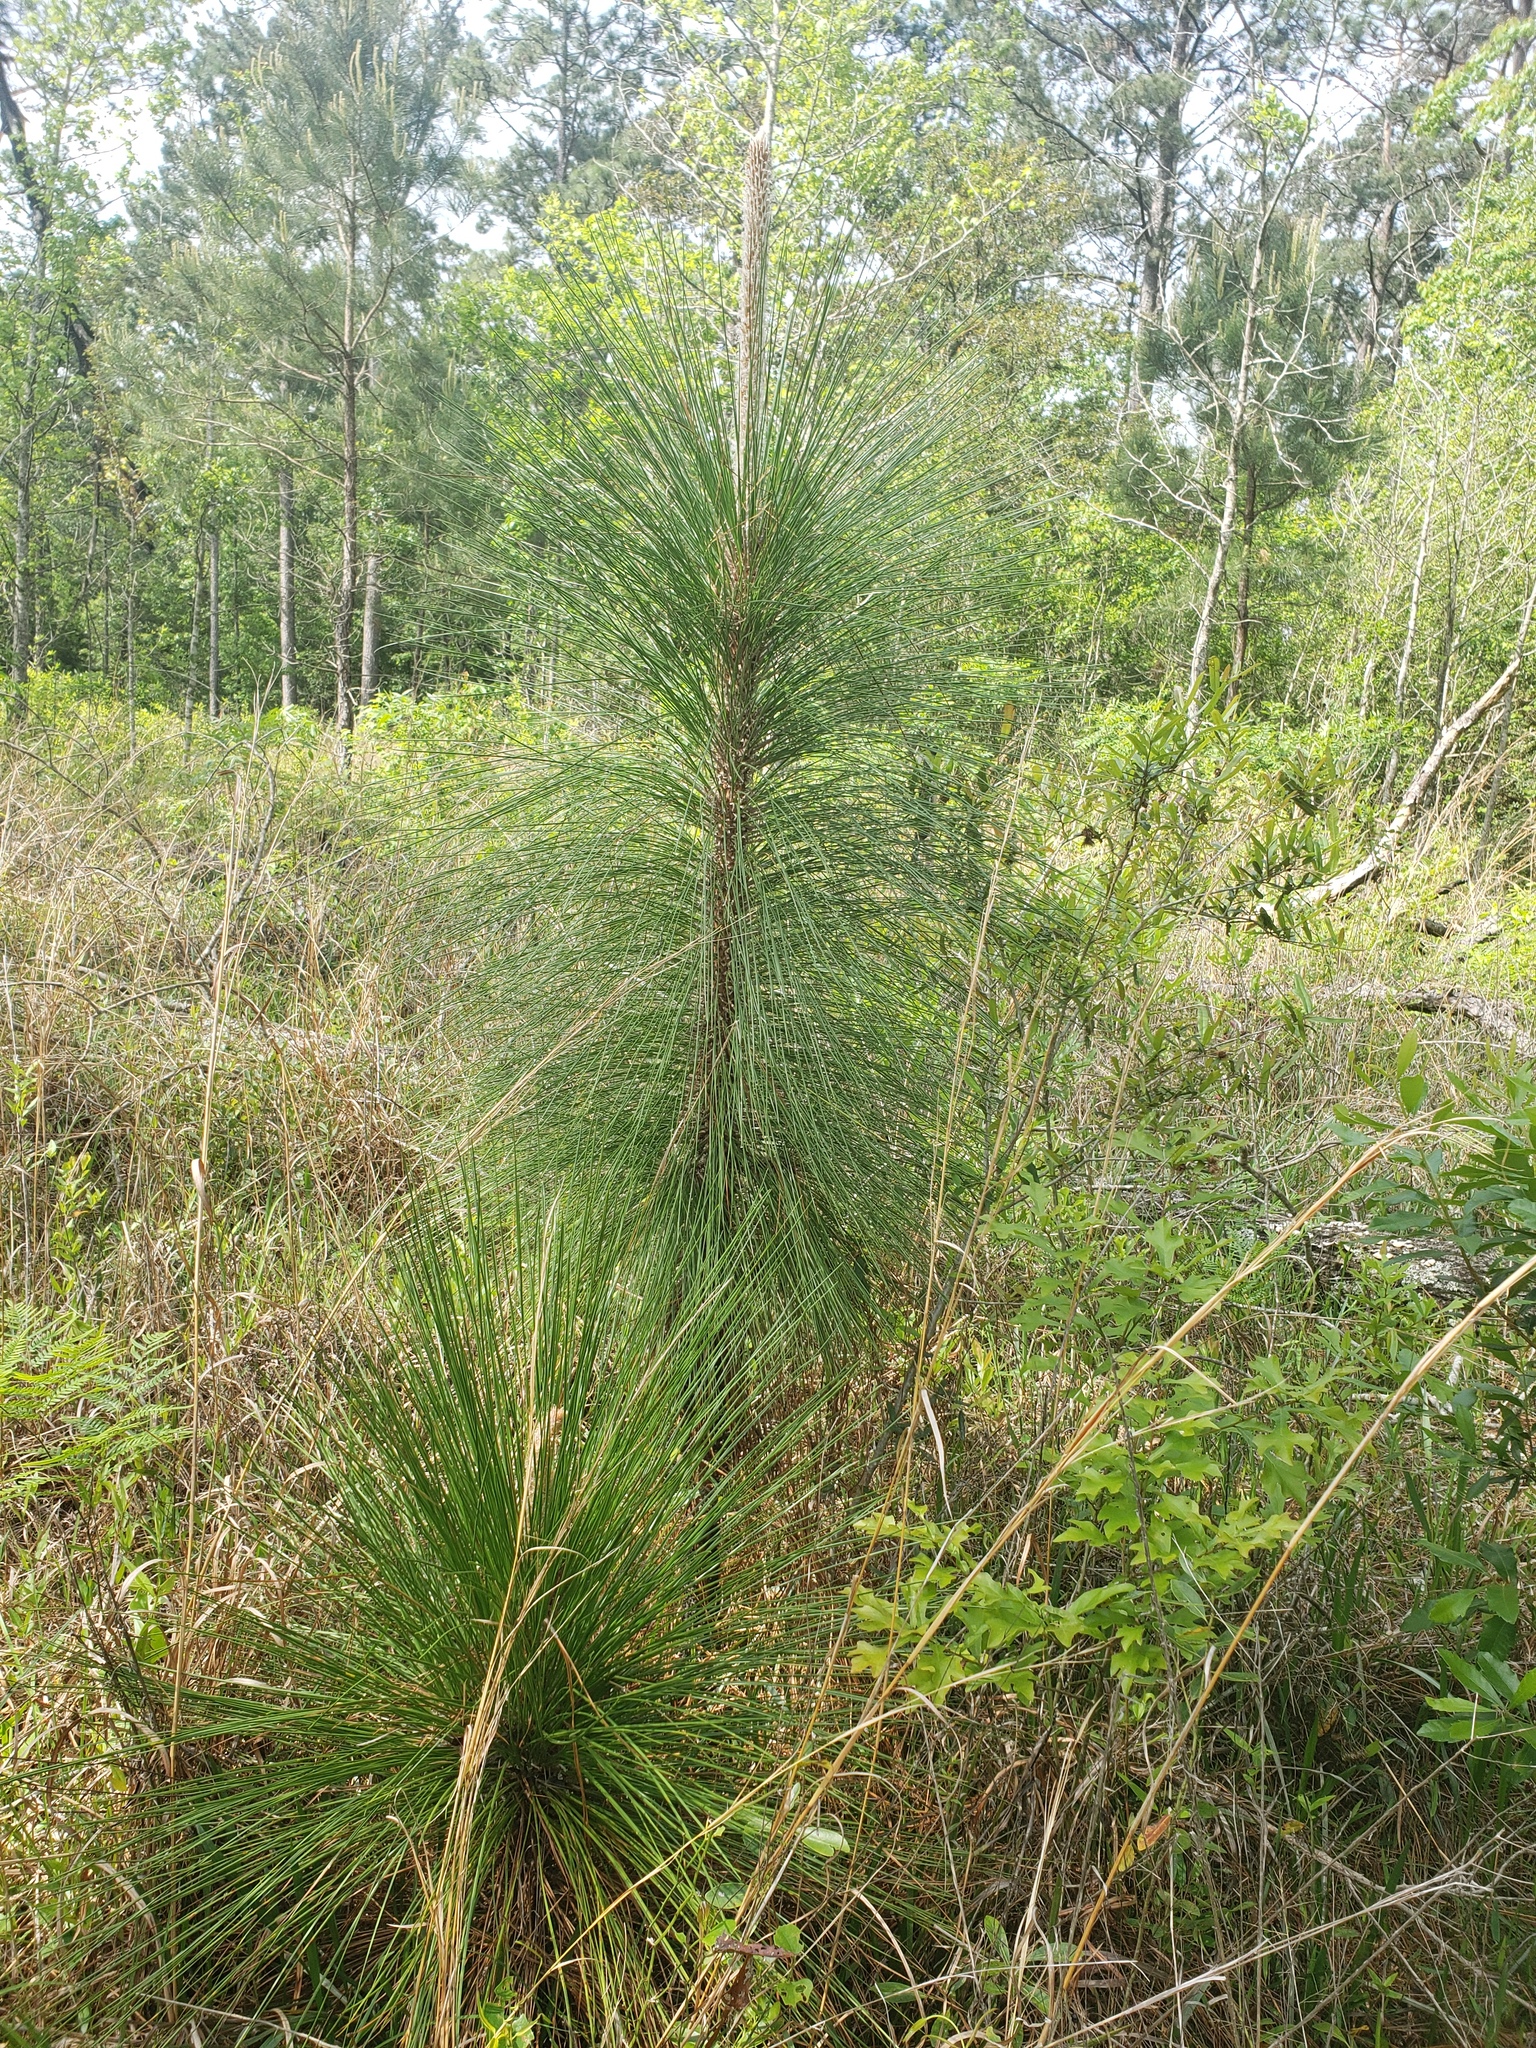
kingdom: Plantae
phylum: Tracheophyta
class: Pinopsida
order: Pinales
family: Pinaceae
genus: Pinus
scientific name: Pinus palustris
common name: Longleaf pine
